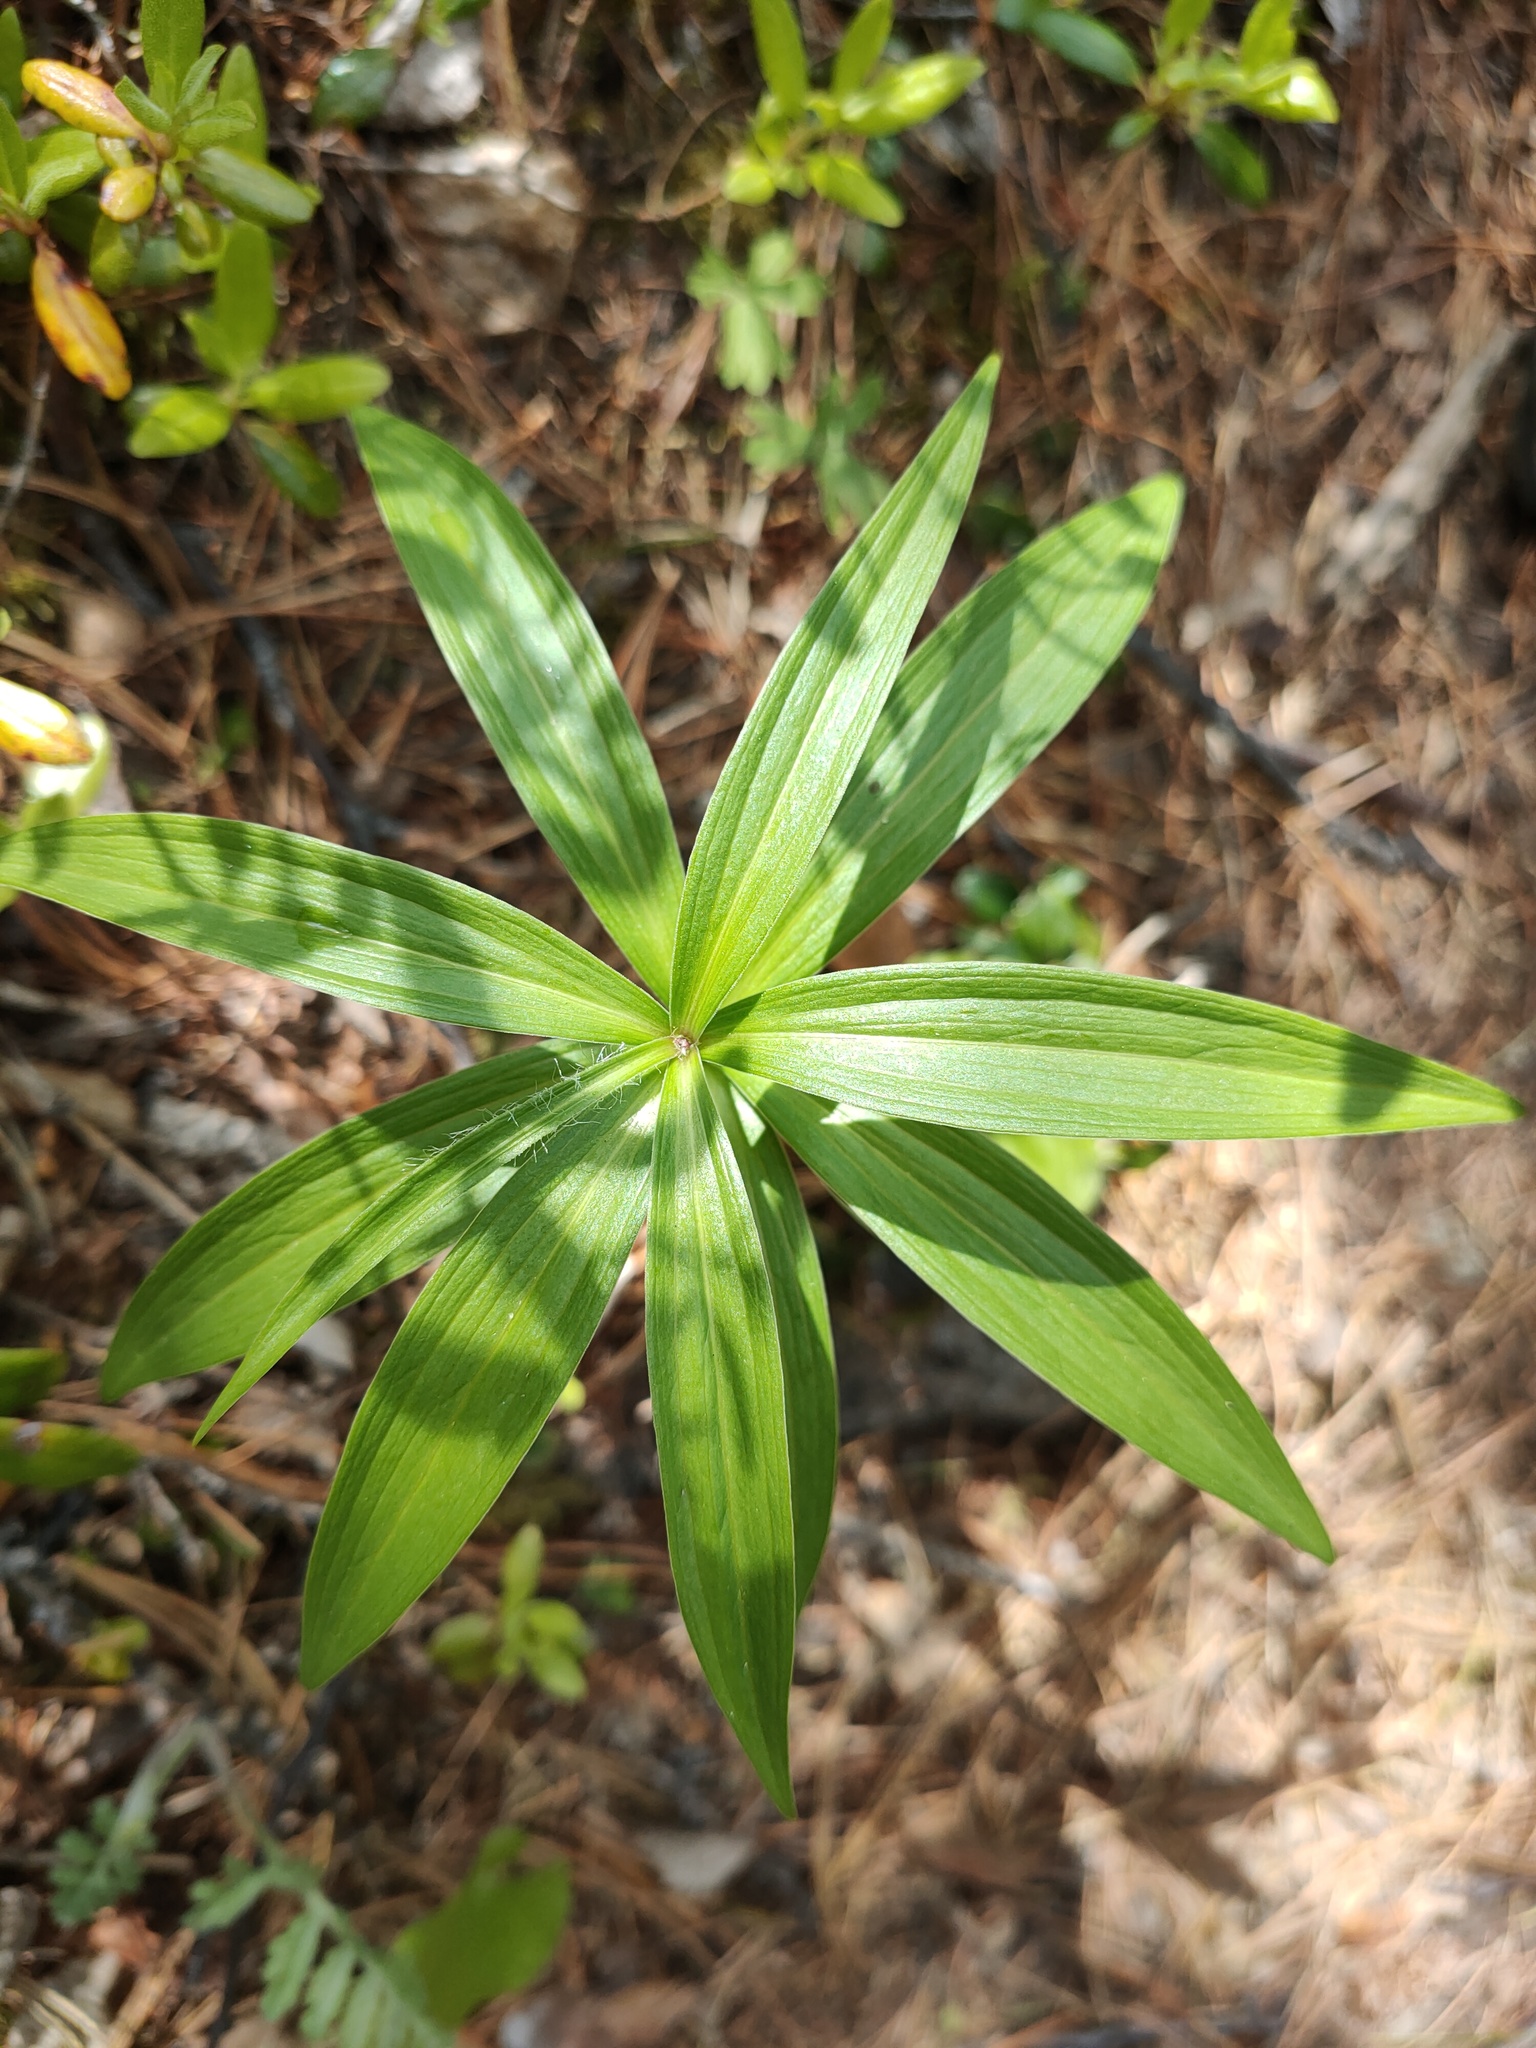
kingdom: Plantae
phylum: Tracheophyta
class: Liliopsida
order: Liliales
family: Liliaceae
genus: Lilium
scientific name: Lilium martagon
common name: Martagon lily
